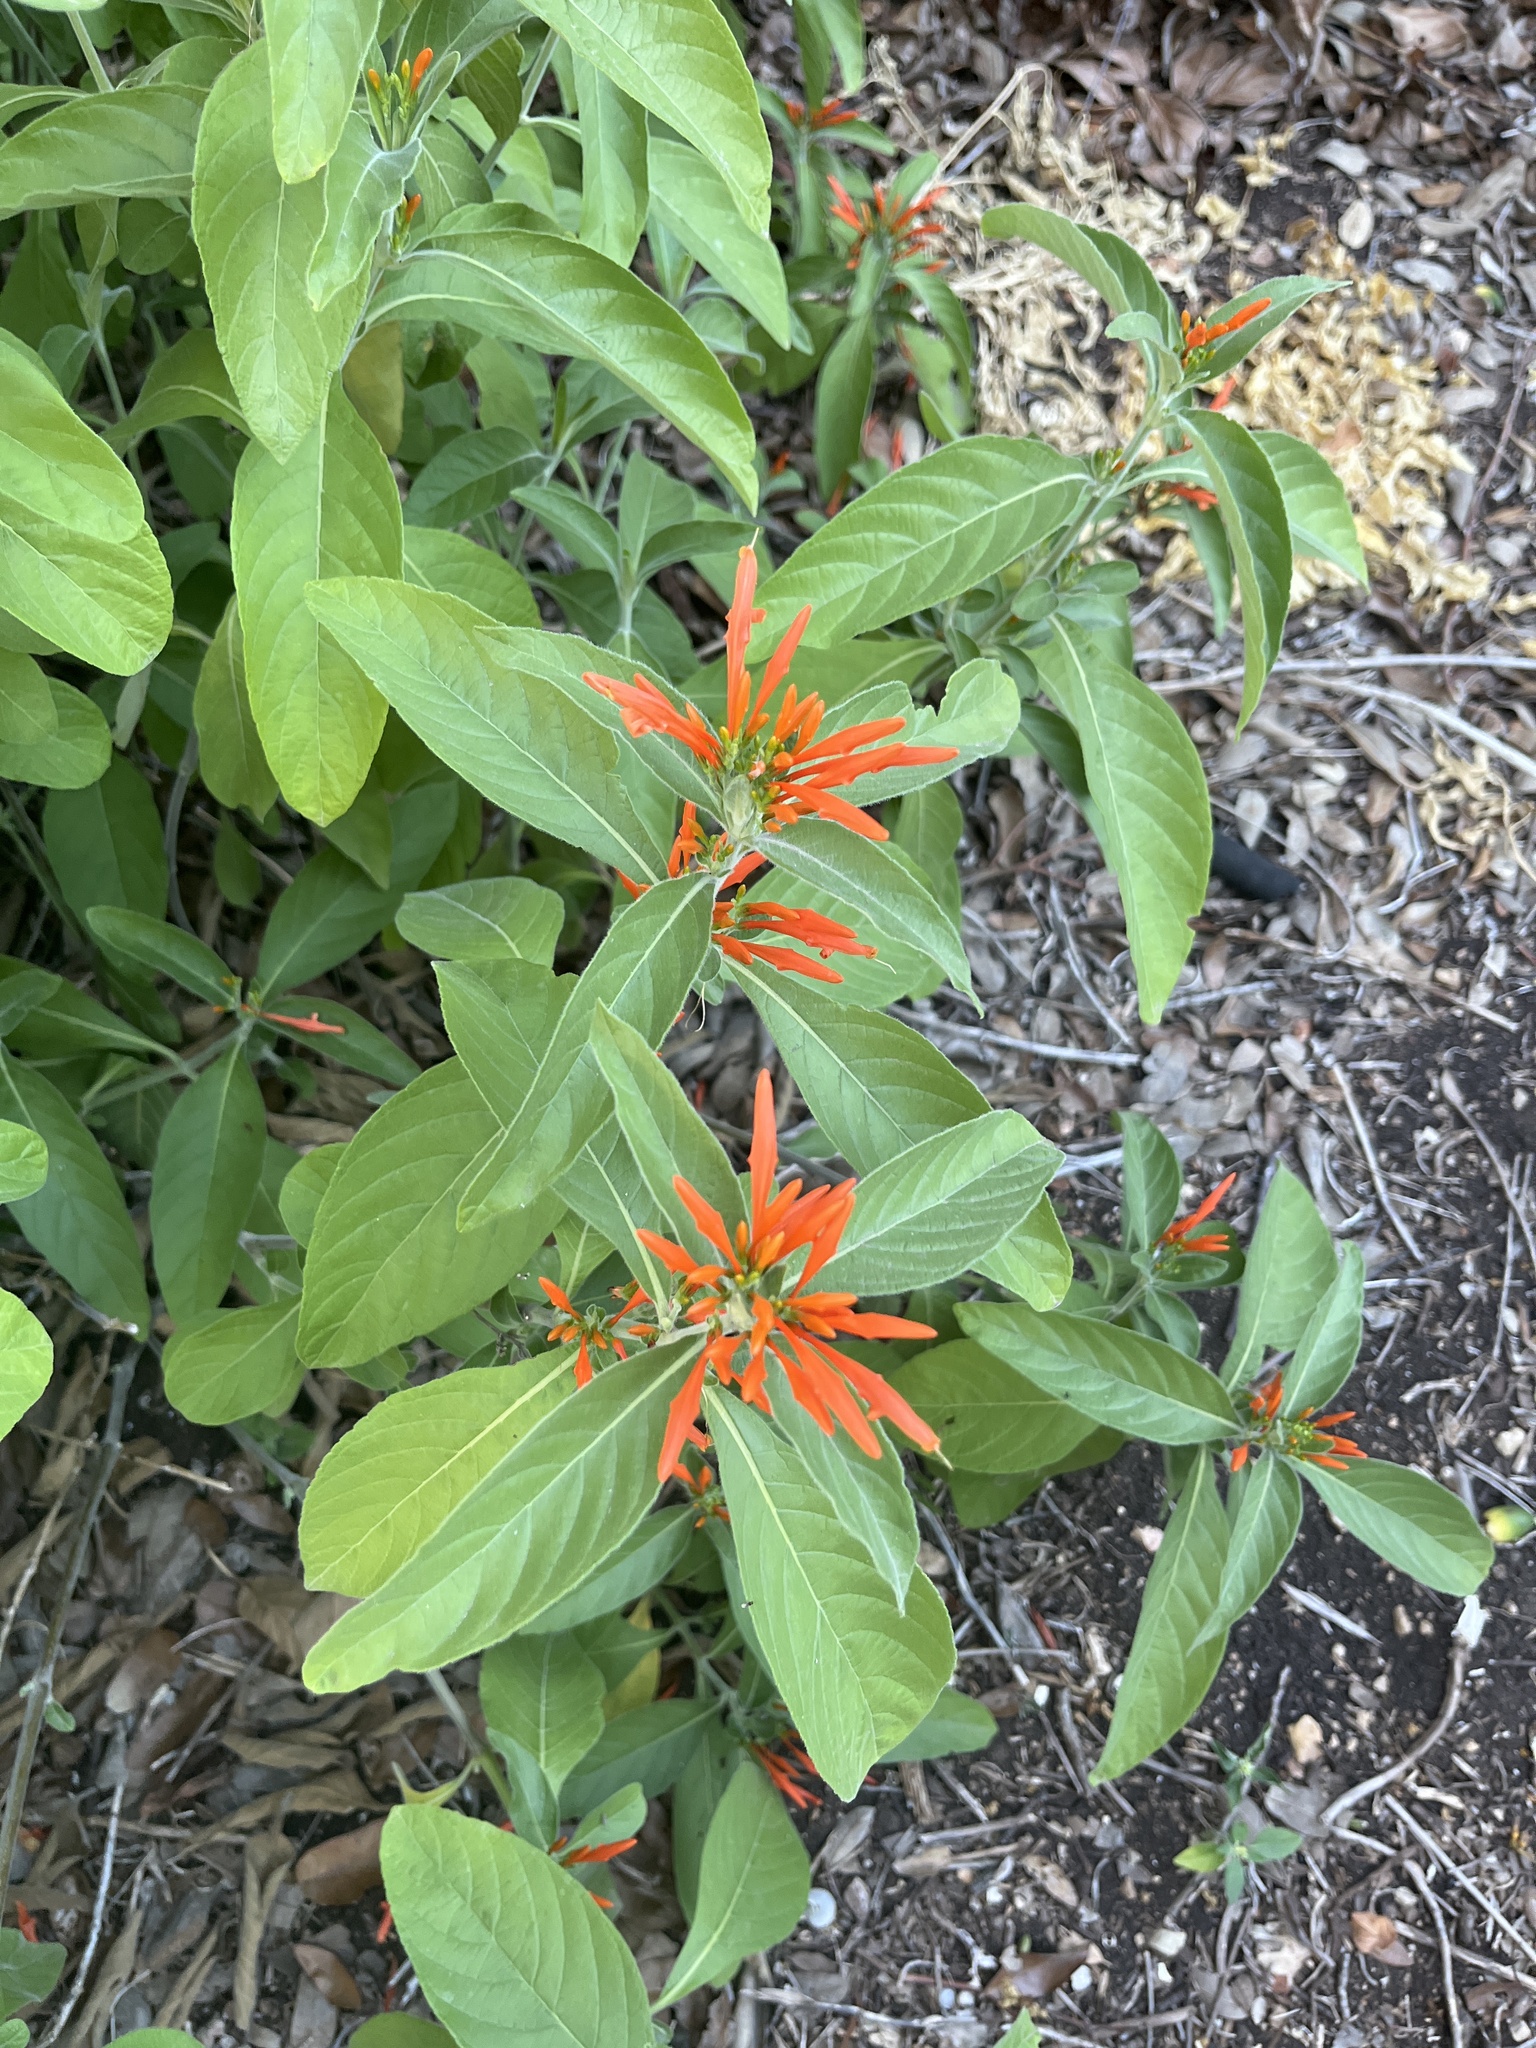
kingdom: Plantae
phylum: Tracheophyta
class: Magnoliopsida
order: Lamiales
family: Acanthaceae
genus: Justicia
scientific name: Justicia spicigera
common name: Mohintli
